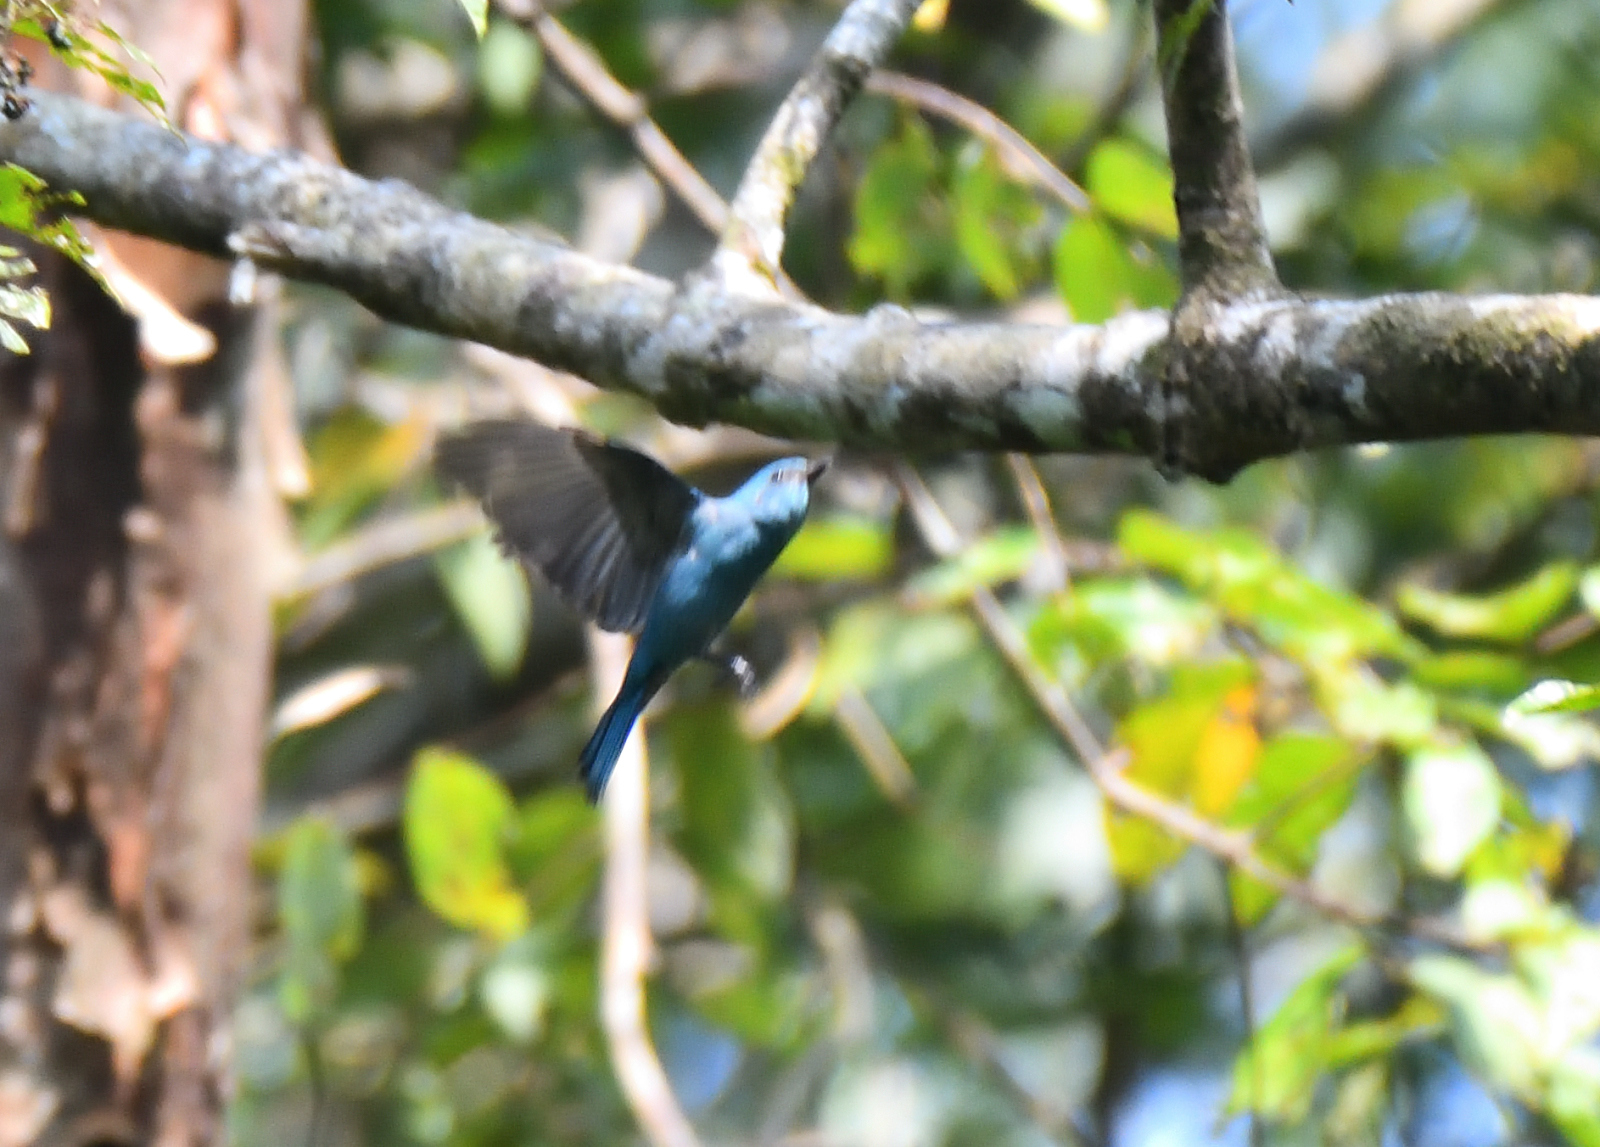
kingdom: Animalia
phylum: Chordata
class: Aves
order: Passeriformes
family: Muscicapidae
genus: Eumyias
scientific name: Eumyias thalassinus
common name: Verditer flycatcher
